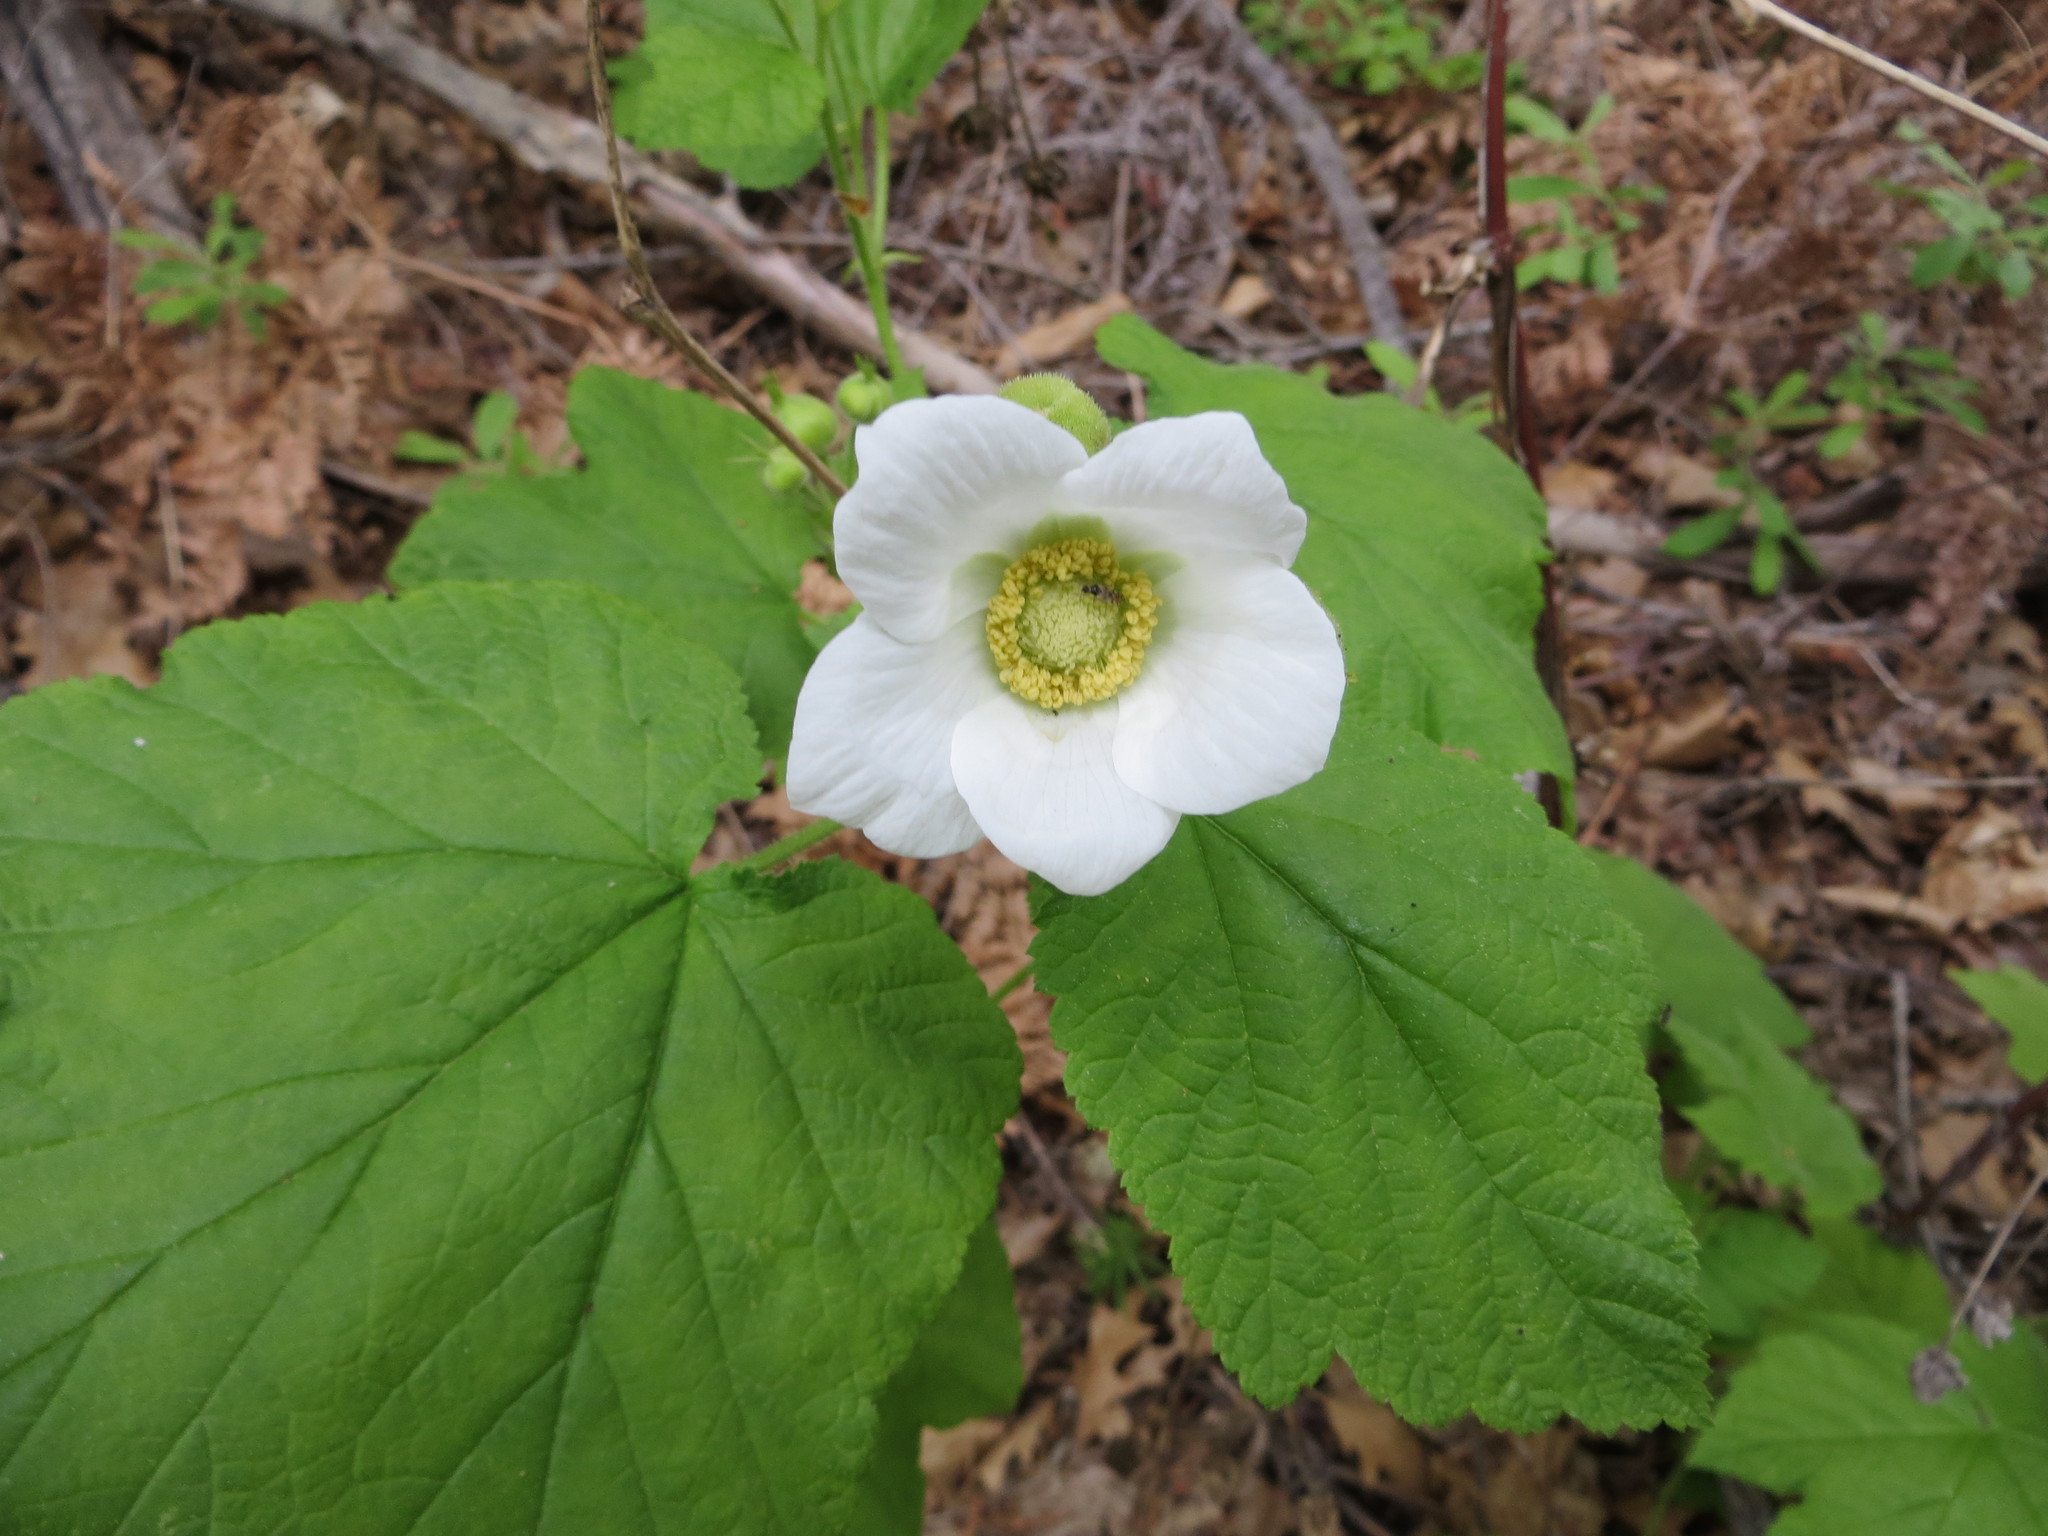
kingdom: Plantae
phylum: Tracheophyta
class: Magnoliopsida
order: Rosales
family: Rosaceae
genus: Rubus
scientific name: Rubus parviflorus
